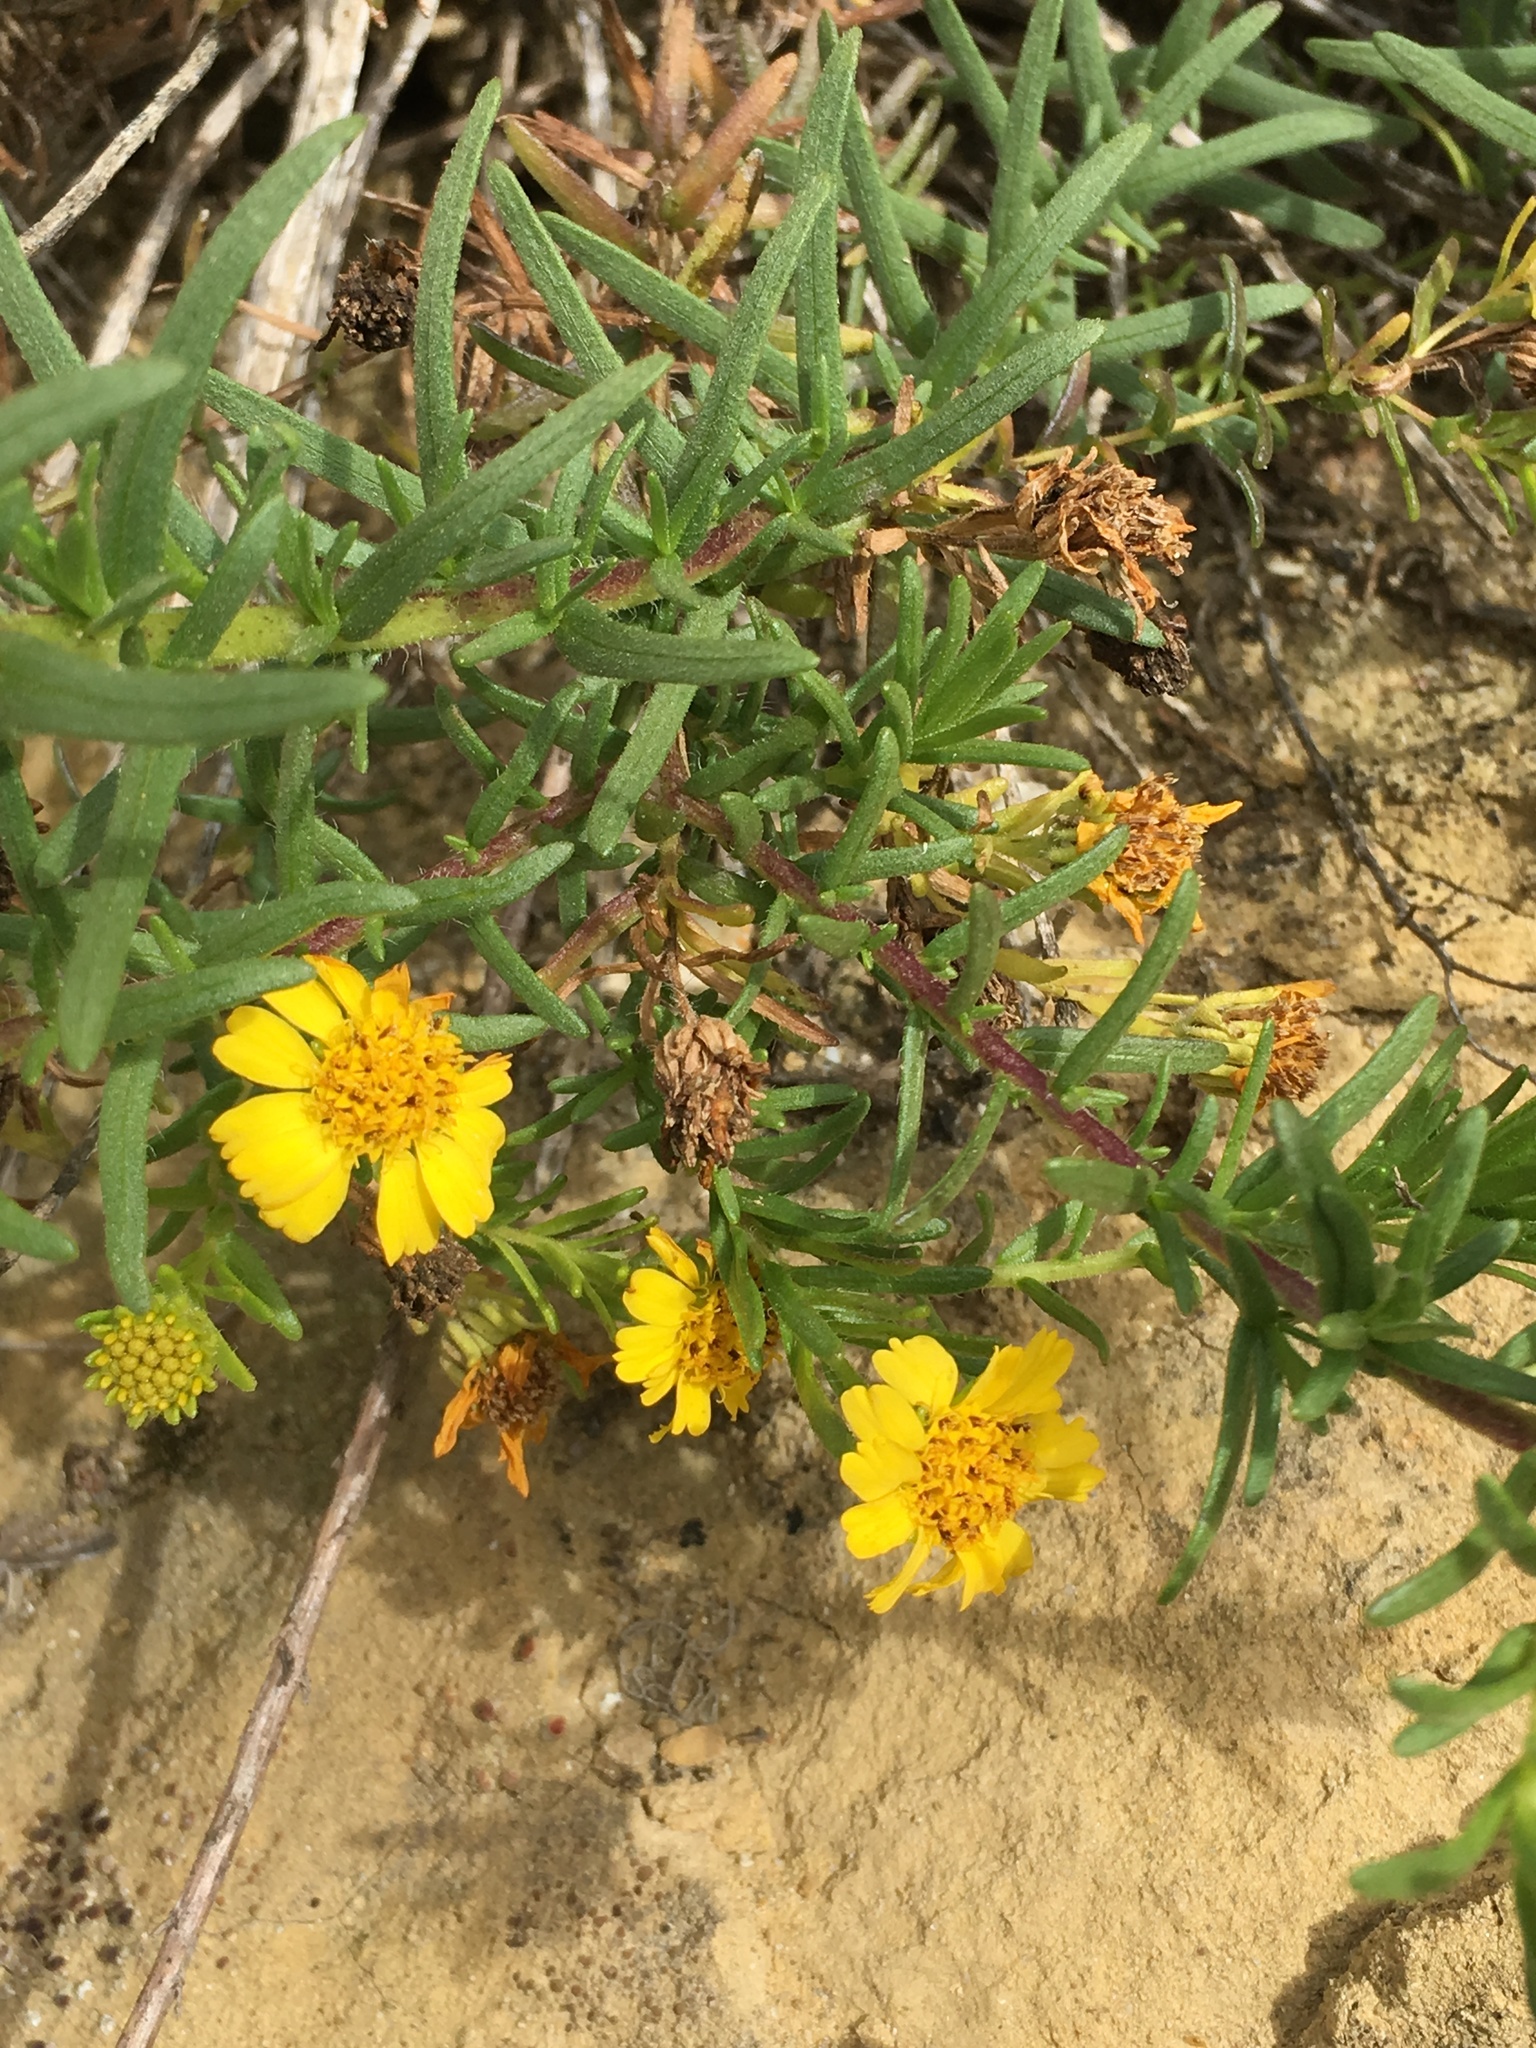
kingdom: Plantae
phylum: Tracheophyta
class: Magnoliopsida
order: Asterales
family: Asteraceae
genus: Deinandra
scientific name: Deinandra clementina
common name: Island tarplant
